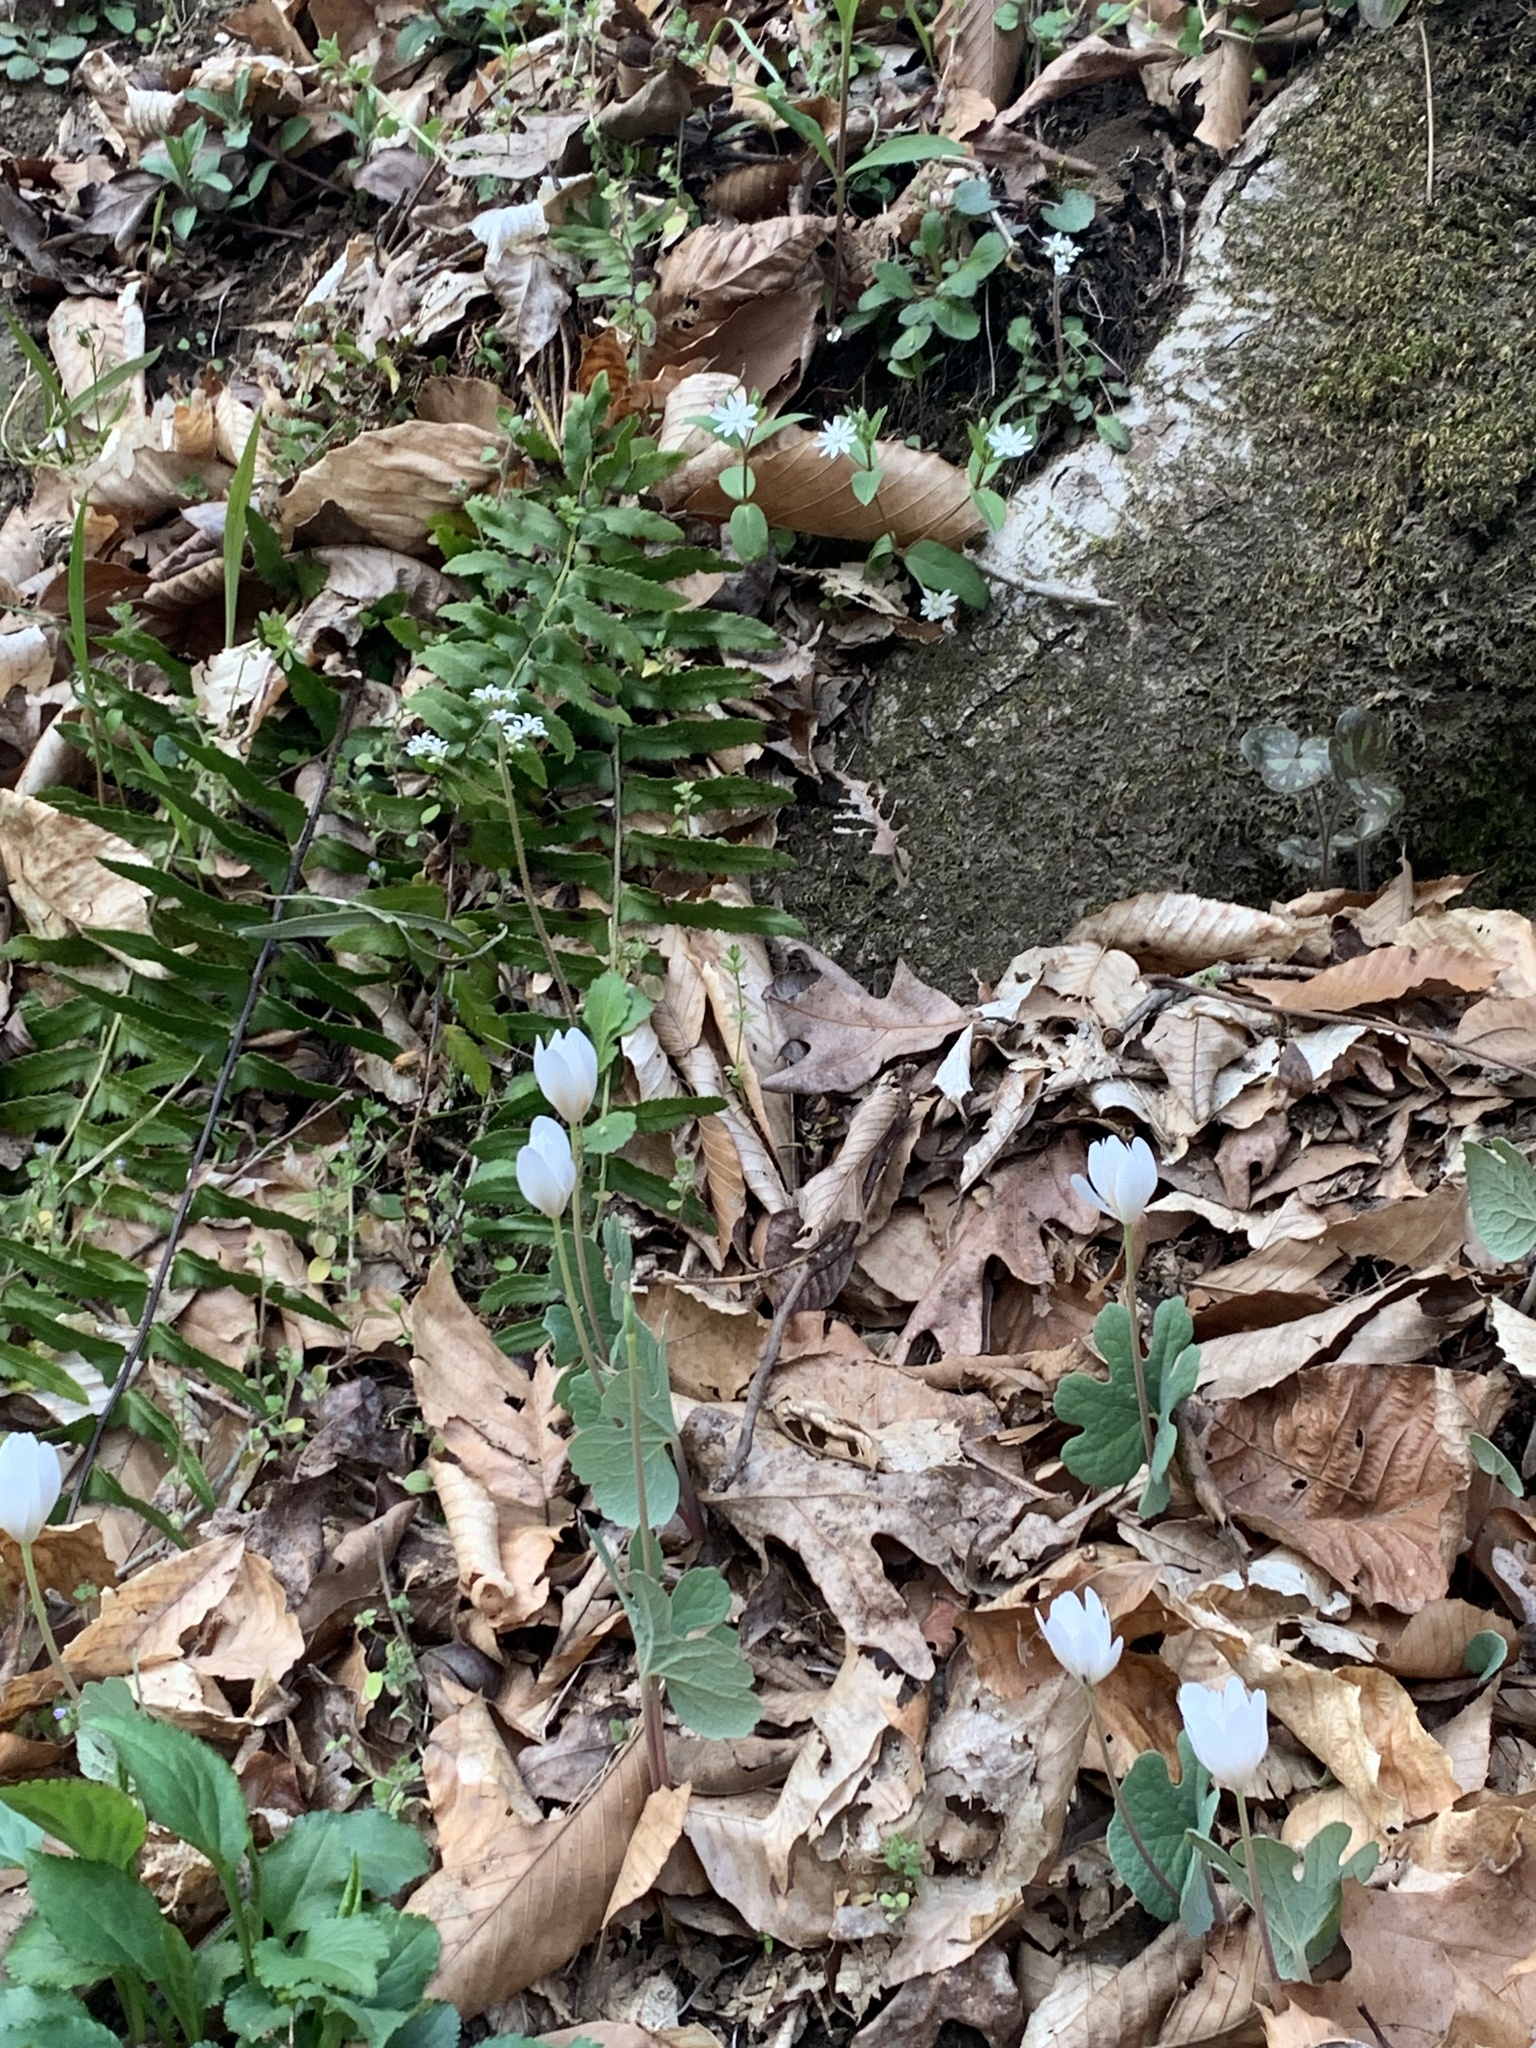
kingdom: Plantae
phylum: Tracheophyta
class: Magnoliopsida
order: Ranunculales
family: Papaveraceae
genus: Sanguinaria
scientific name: Sanguinaria canadensis
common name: Bloodroot
